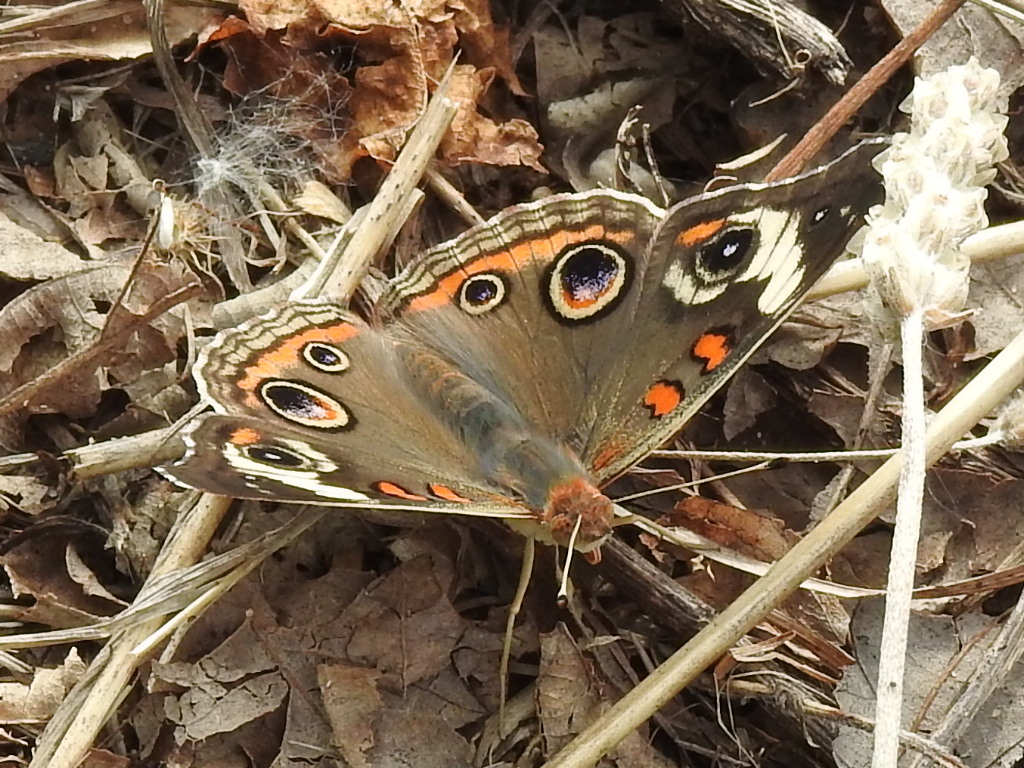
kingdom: Animalia
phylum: Arthropoda
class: Insecta
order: Lepidoptera
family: Nymphalidae
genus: Junonia
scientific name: Junonia coenia
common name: Common buckeye
